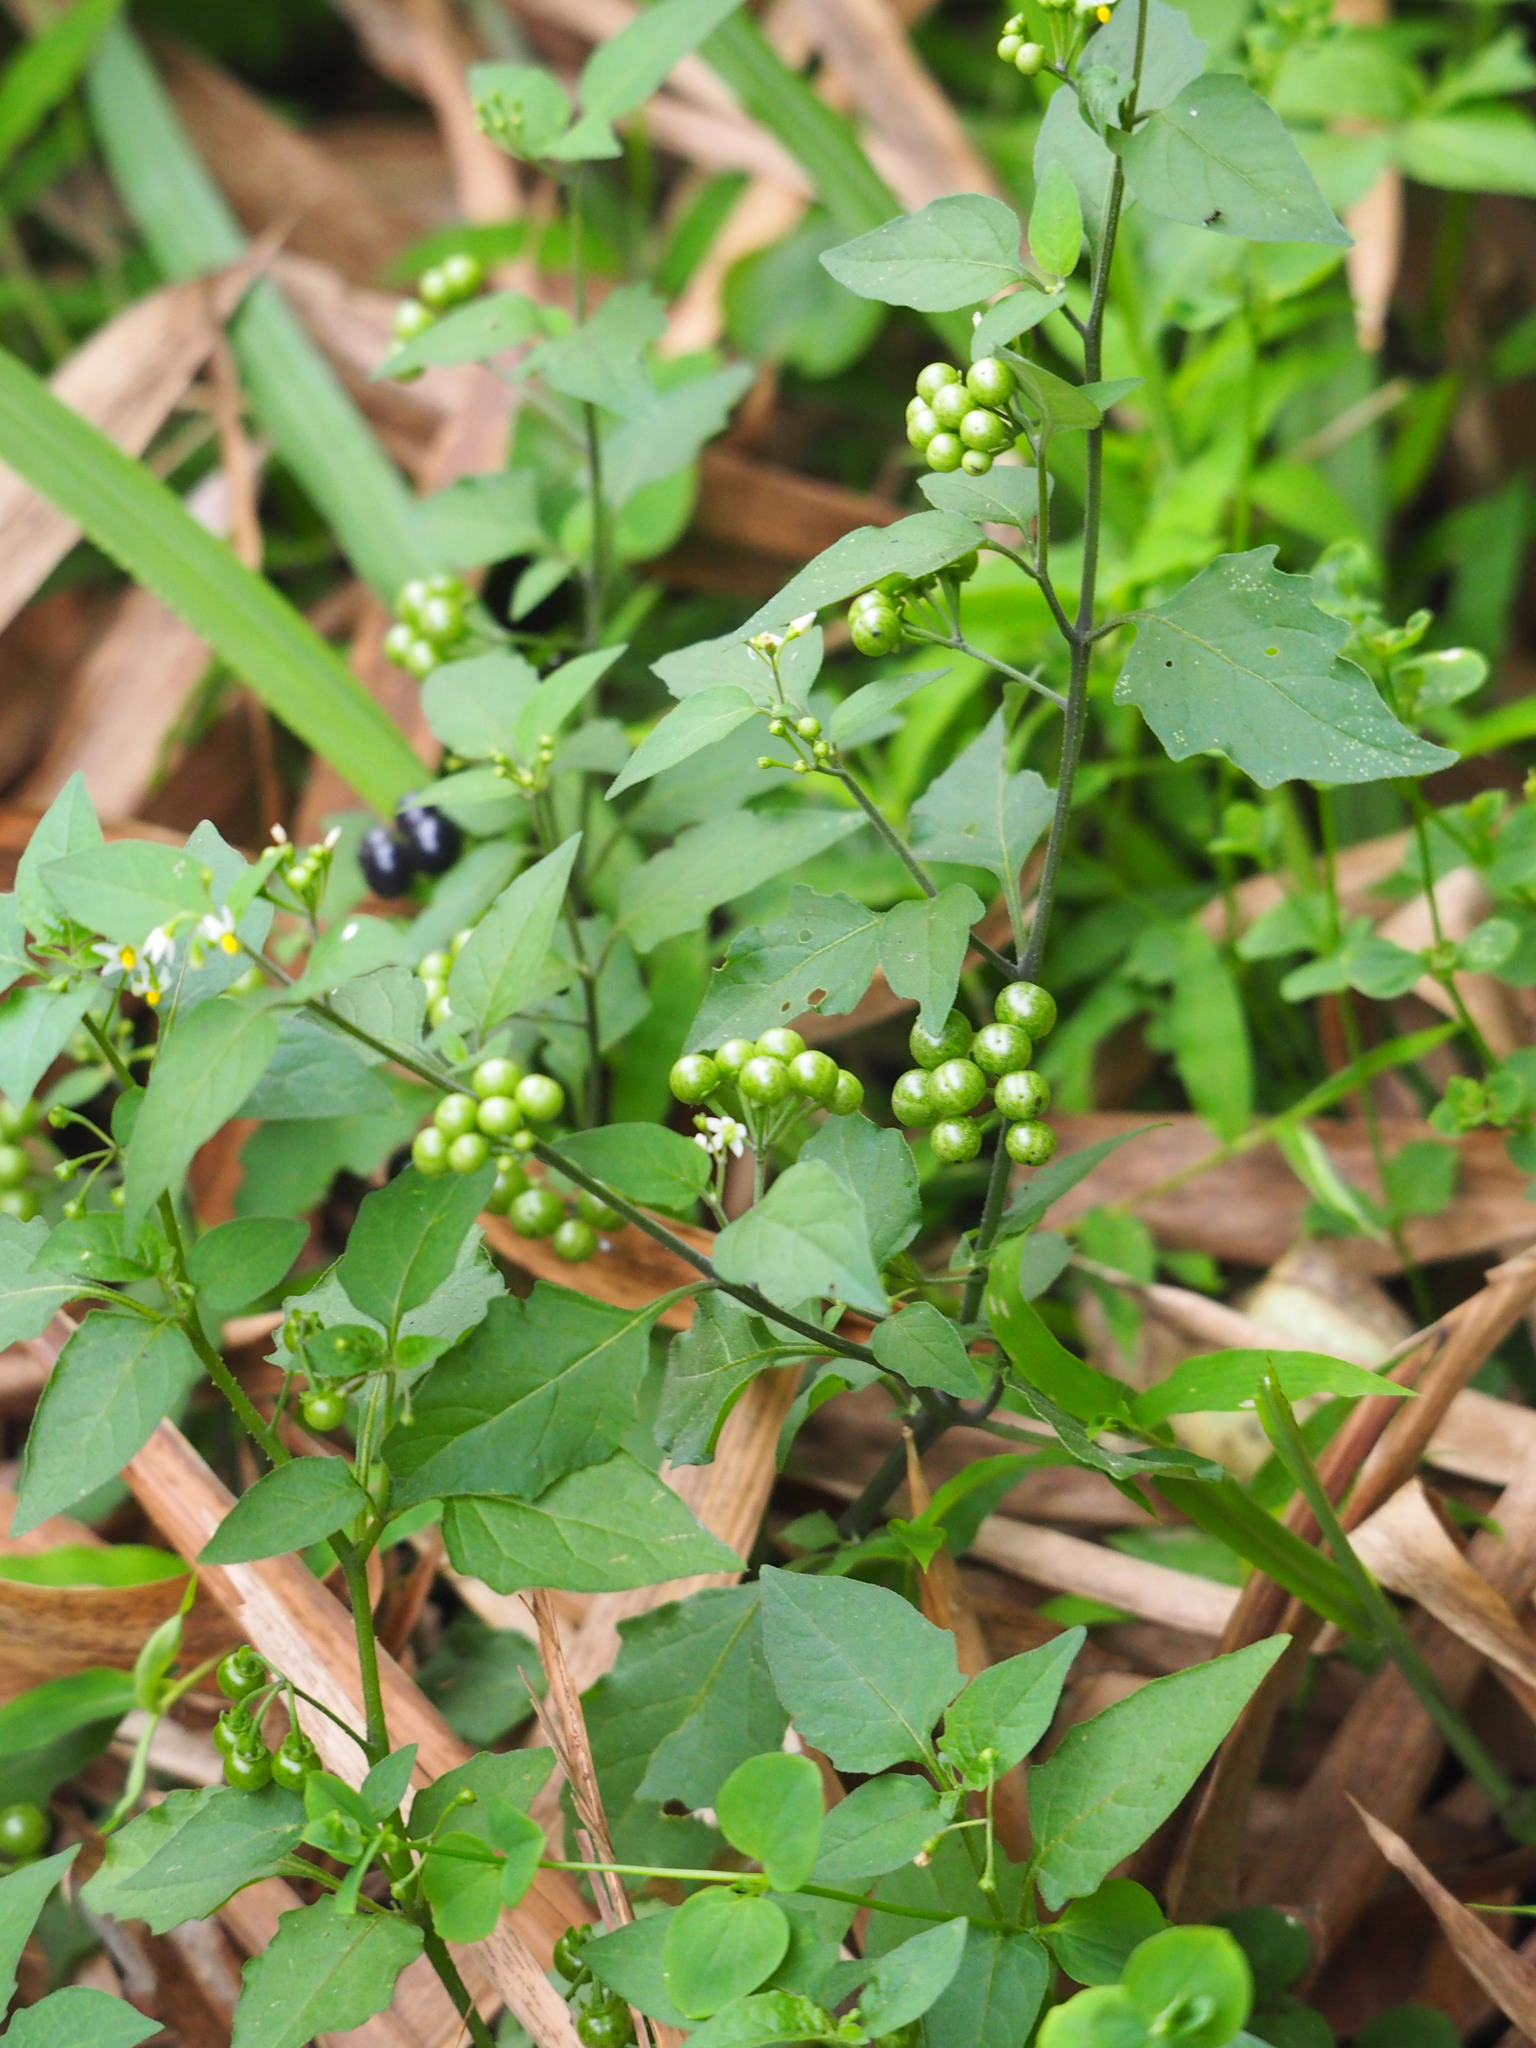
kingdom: Plantae
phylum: Tracheophyta
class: Magnoliopsida
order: Solanales
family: Solanaceae
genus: Solanum
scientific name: Solanum scabrum
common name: Garden-huckleberry
